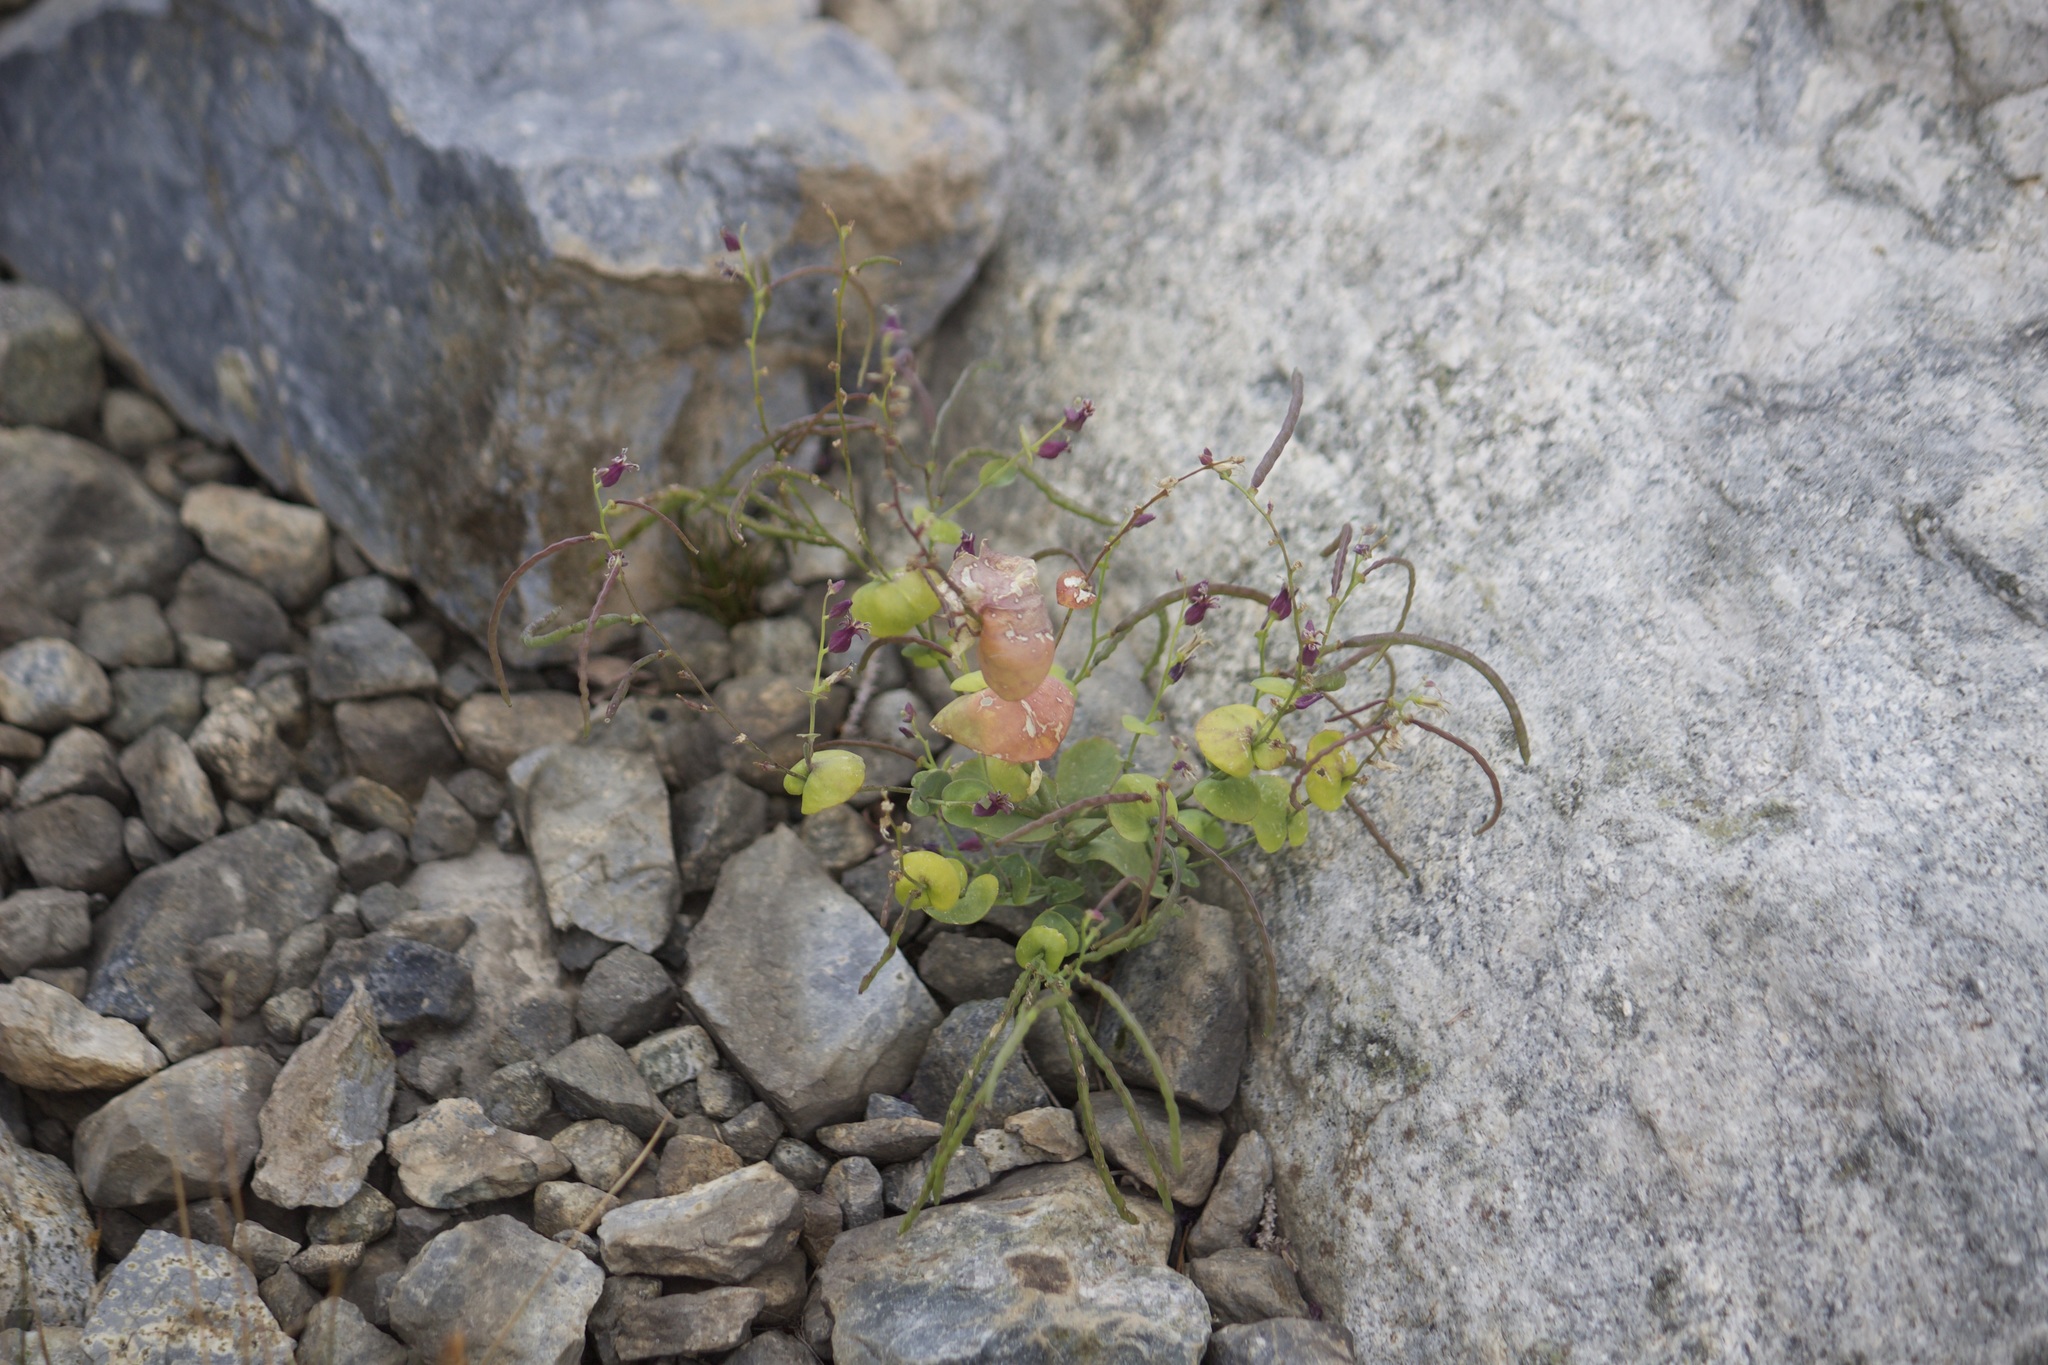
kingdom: Plantae
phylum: Tracheophyta
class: Magnoliopsida
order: Brassicales
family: Brassicaceae
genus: Streptanthus
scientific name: Streptanthus tortuosus
